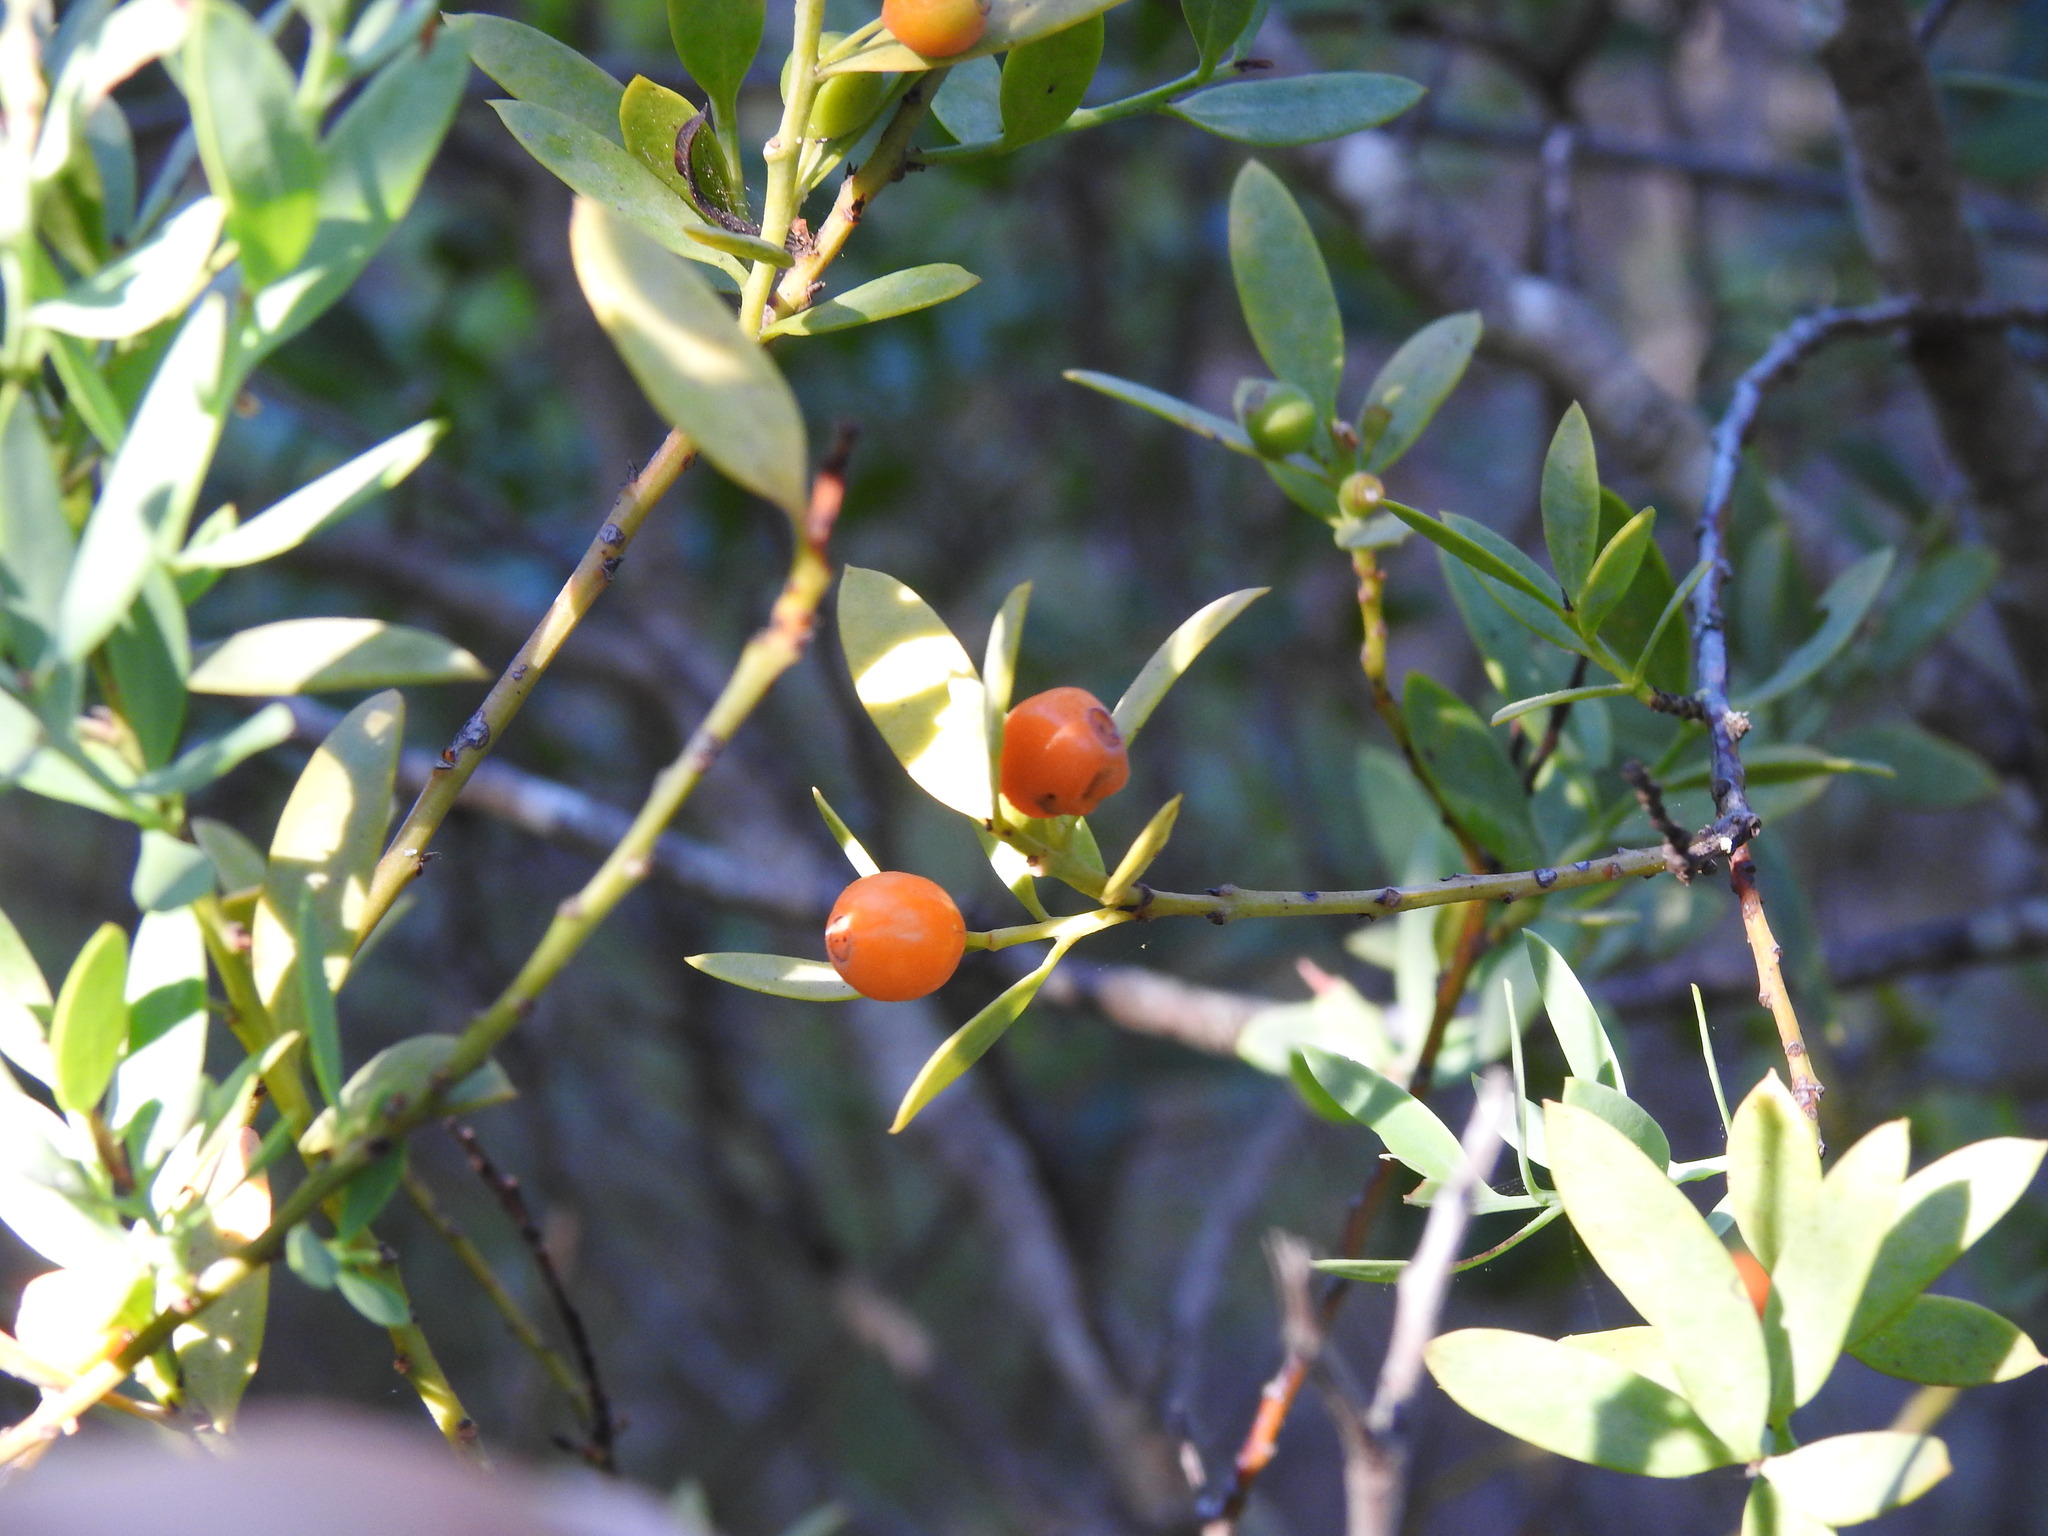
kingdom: Plantae
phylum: Tracheophyta
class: Magnoliopsida
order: Santalales
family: Santalaceae
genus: Osyris
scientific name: Osyris lanceolata
